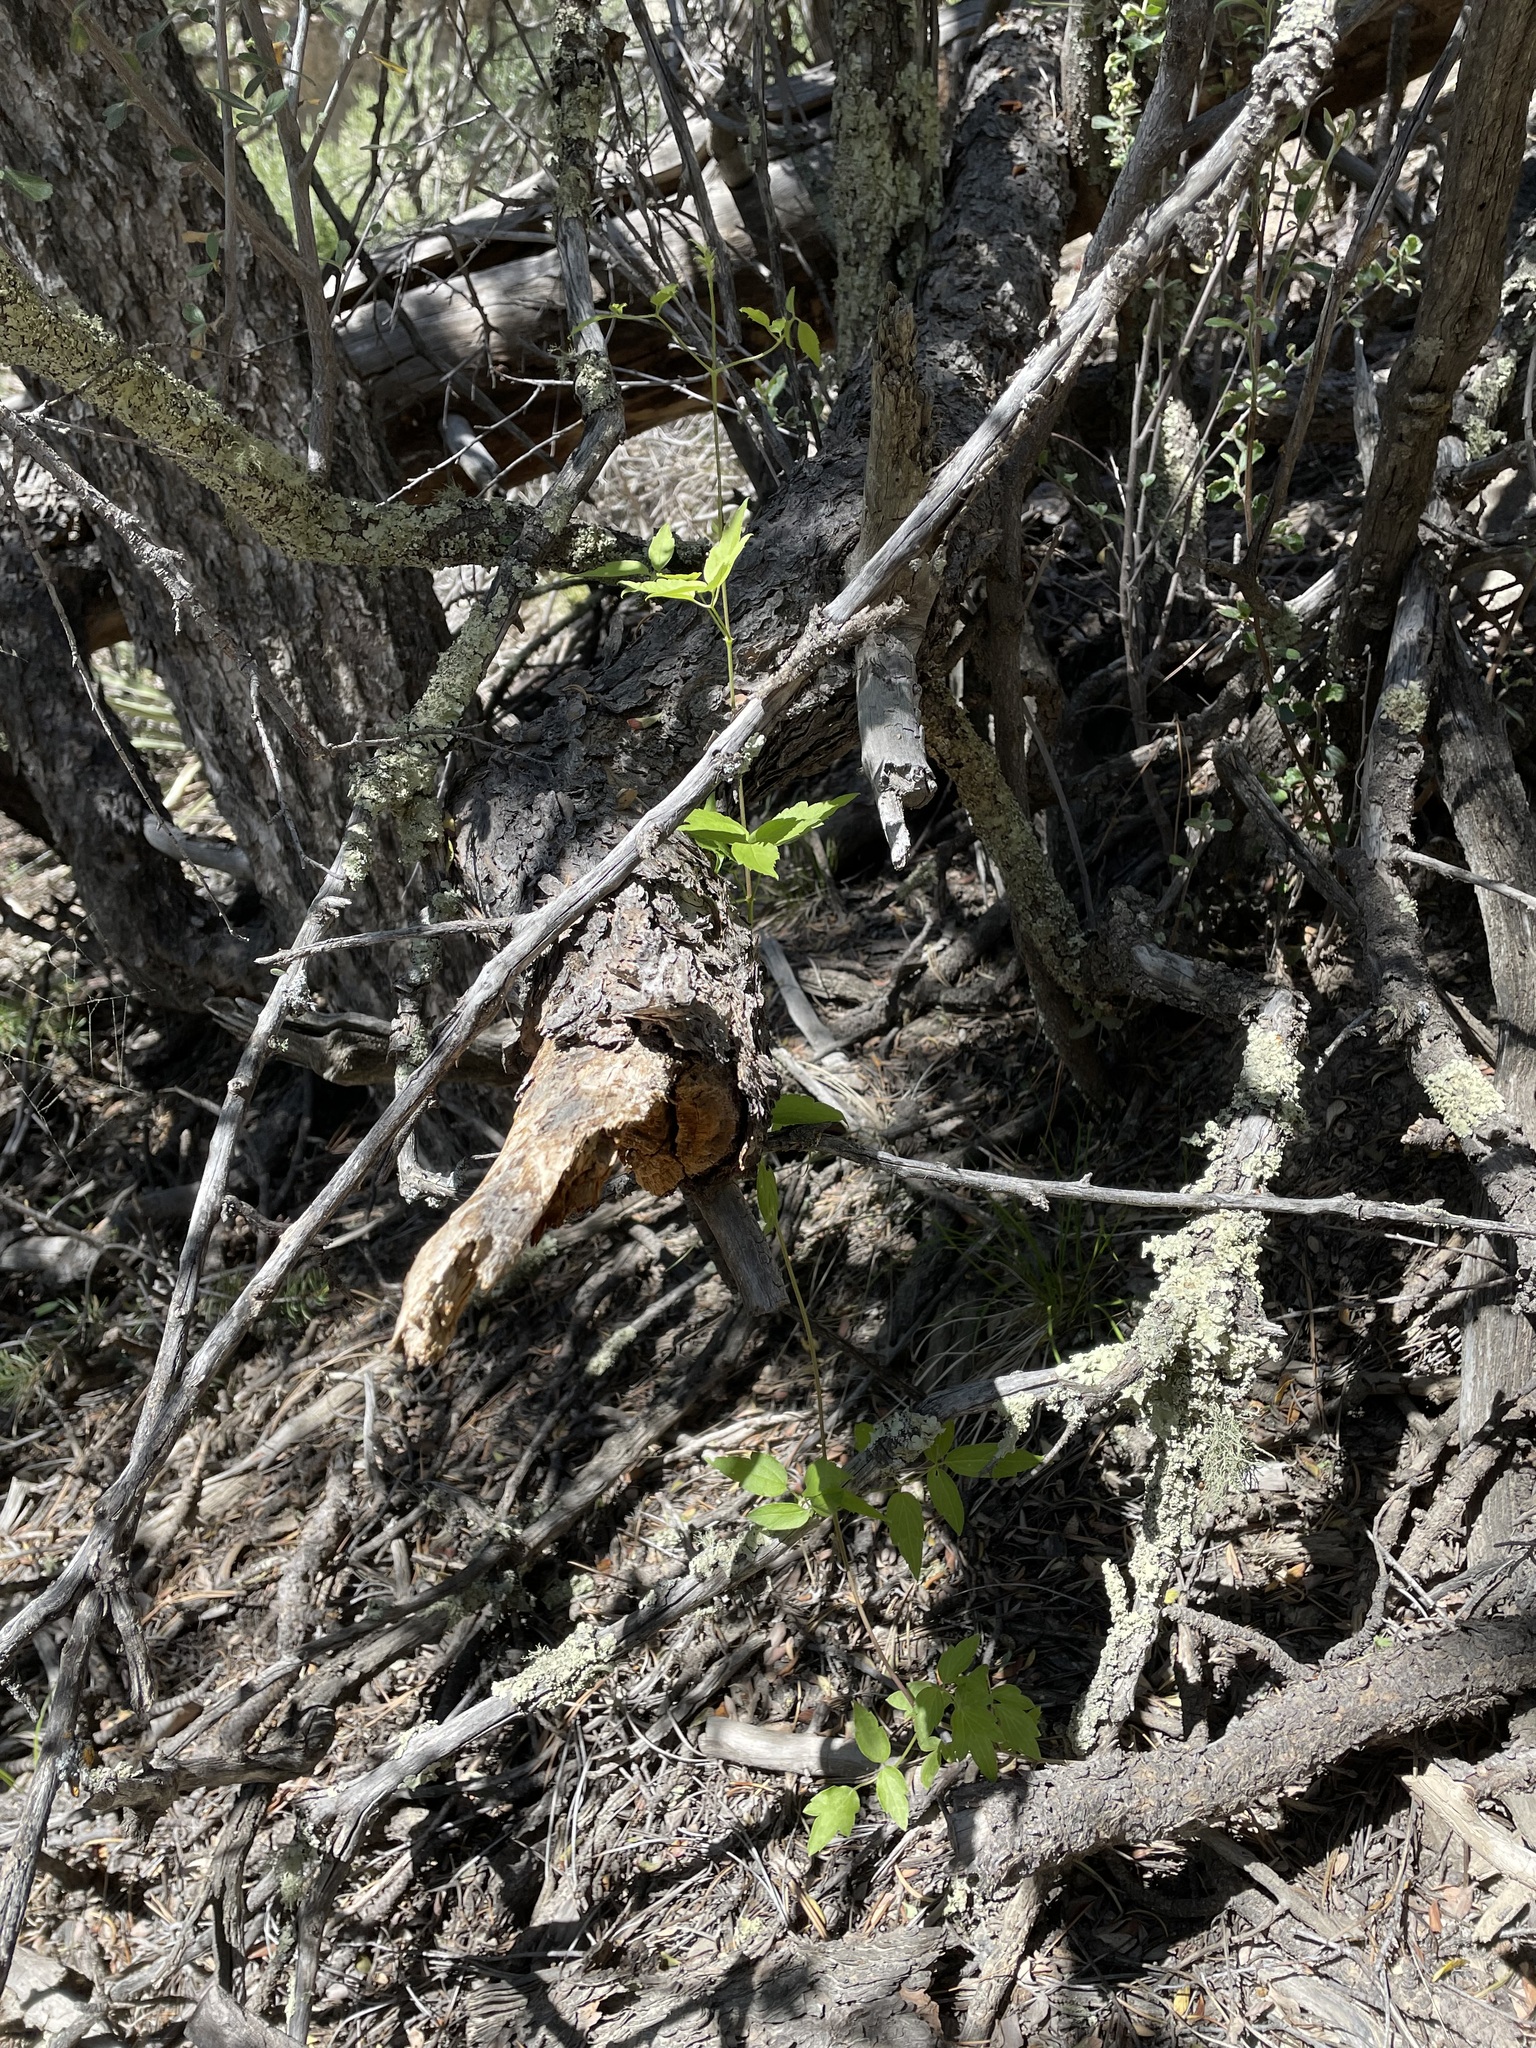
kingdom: Plantae
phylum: Tracheophyta
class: Magnoliopsida
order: Ranunculales
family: Ranunculaceae
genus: Clematis
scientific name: Clematis ligusticifolia
